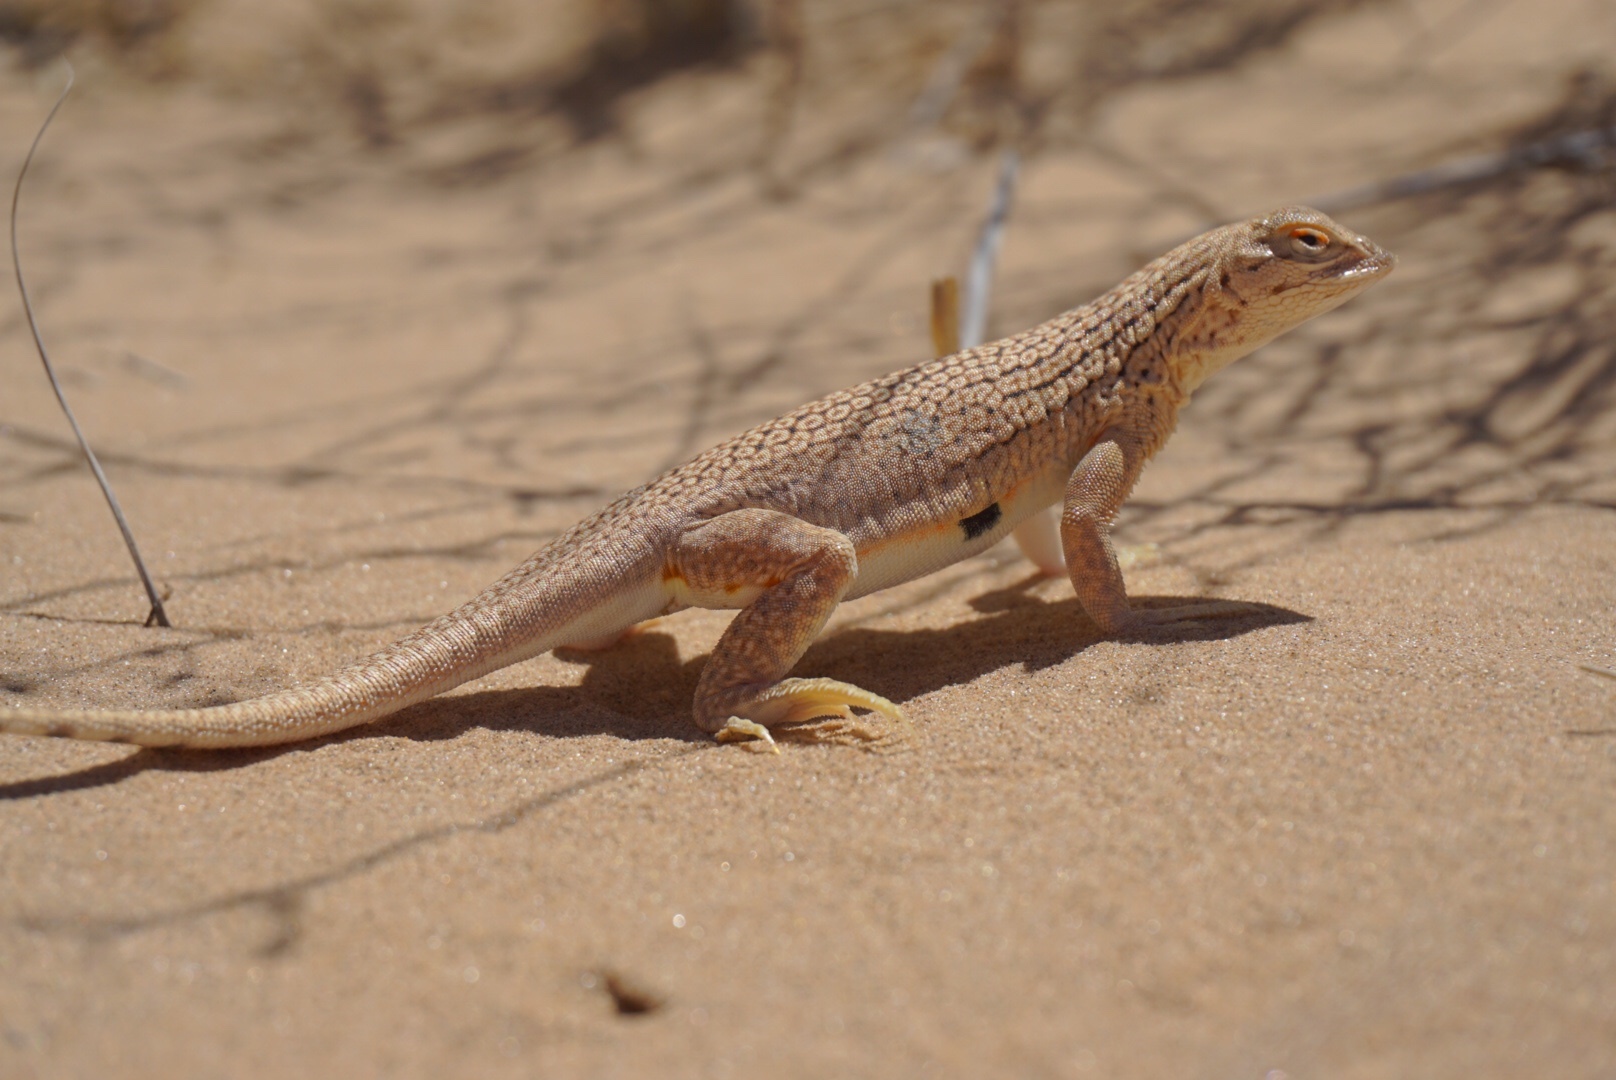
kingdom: Animalia
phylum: Chordata
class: Squamata
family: Phrynosomatidae
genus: Uma
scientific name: Uma rufopunctata
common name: Yuman desert fringe-toed lizard
